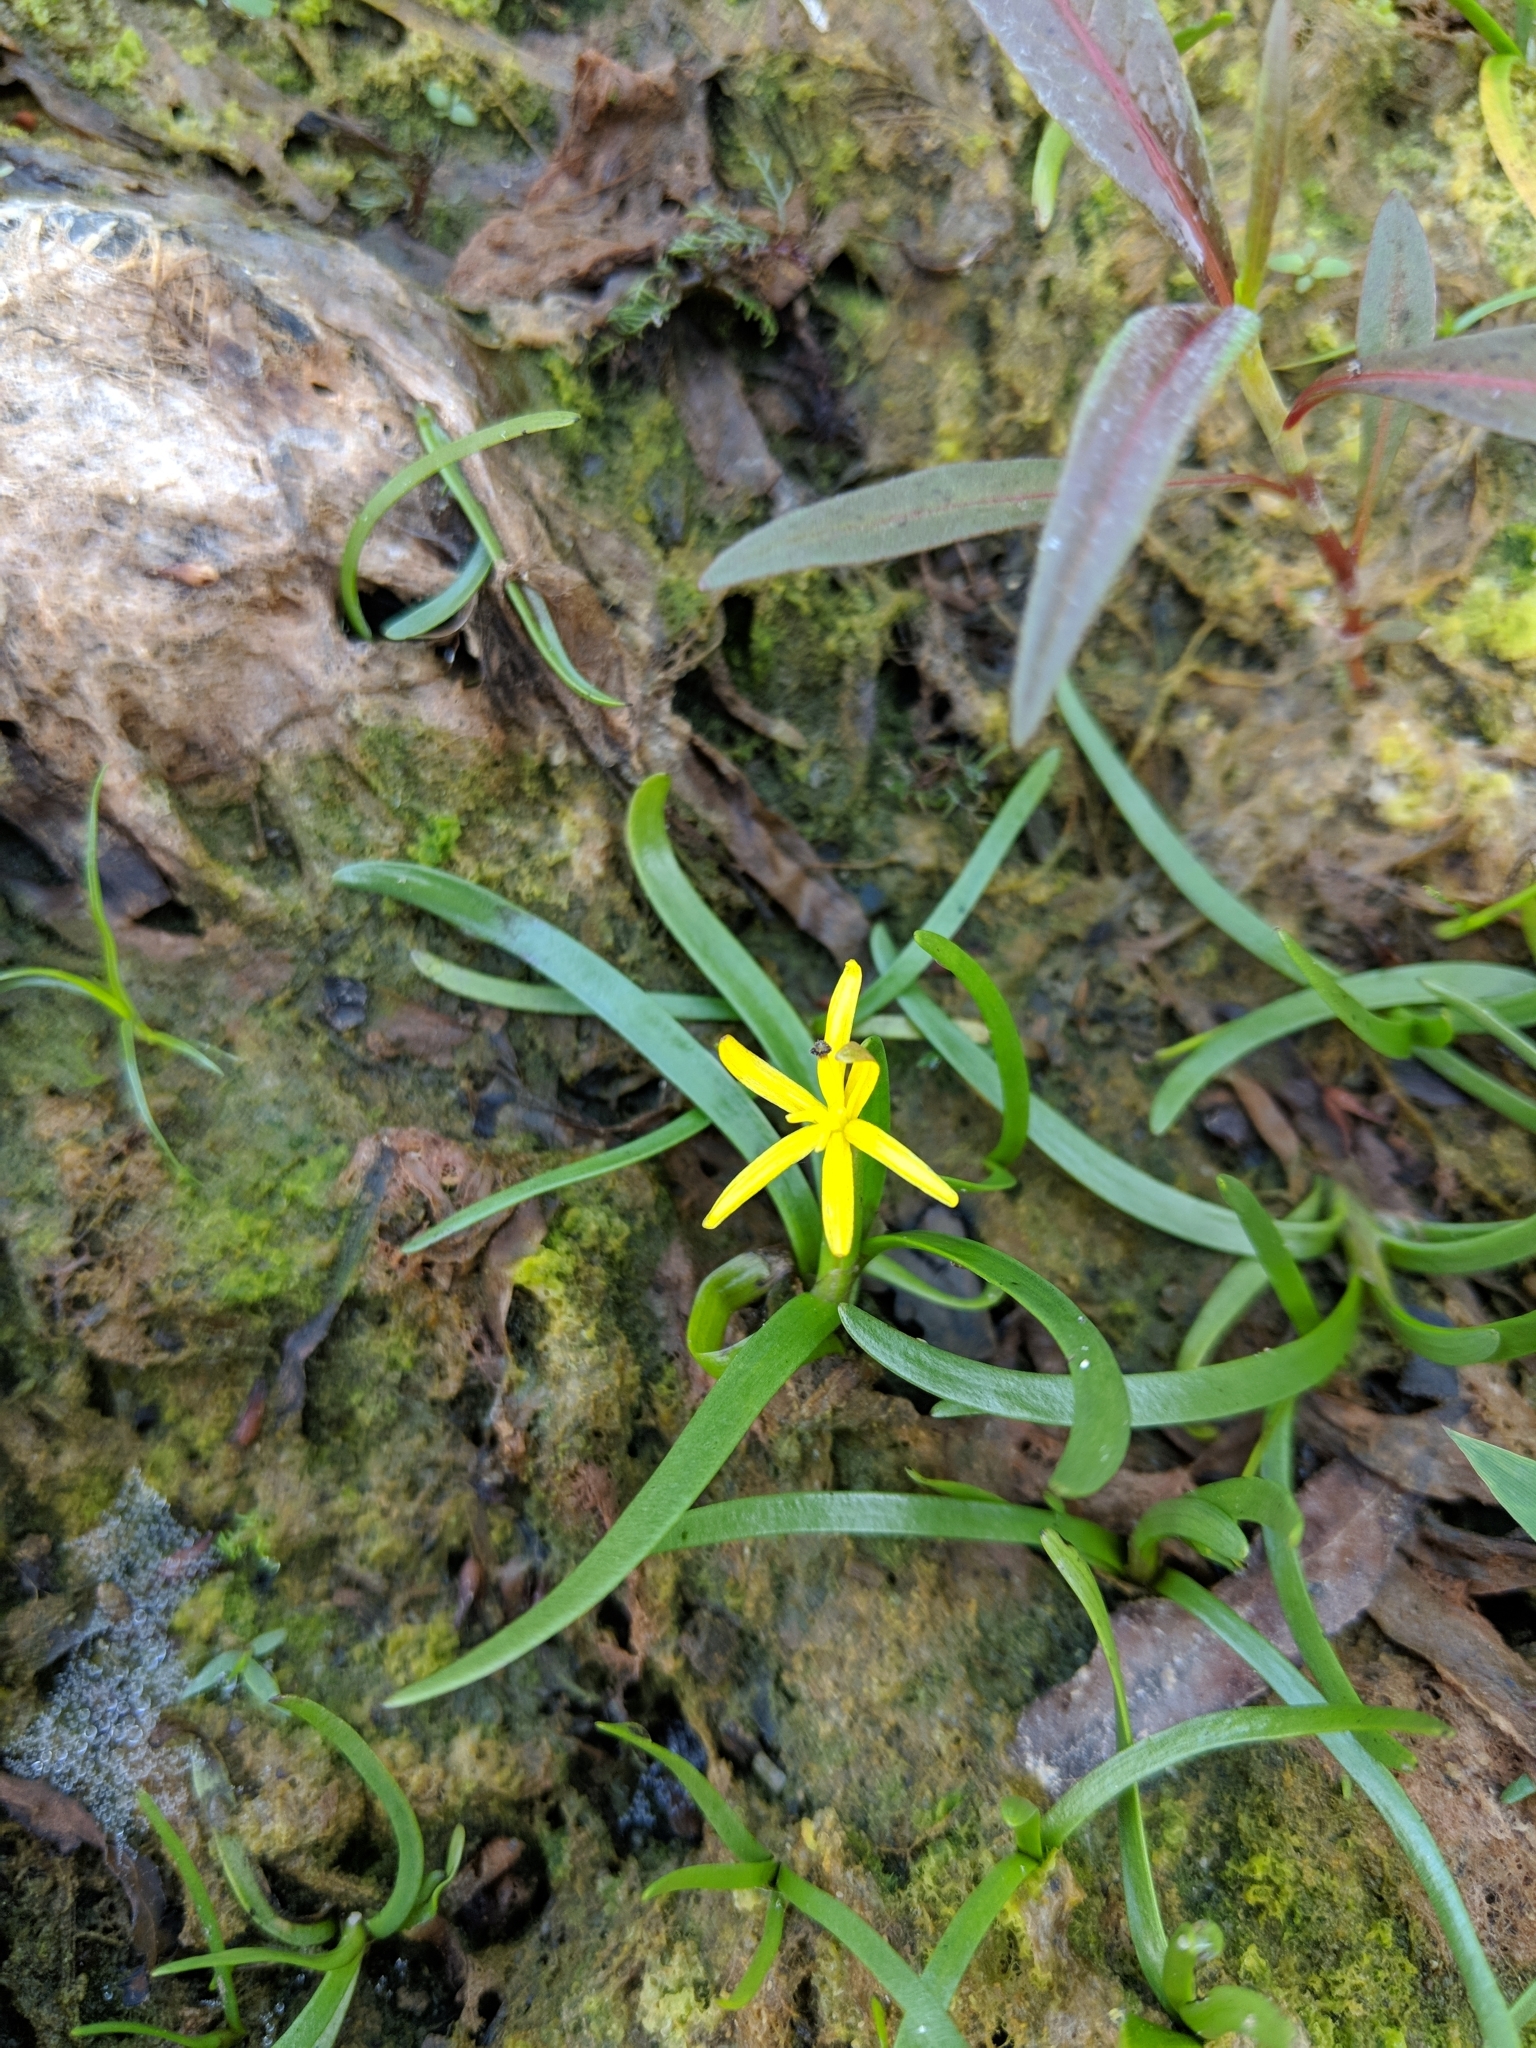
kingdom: Plantae
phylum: Tracheophyta
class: Liliopsida
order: Commelinales
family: Pontederiaceae
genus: Heteranthera
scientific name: Heteranthera dubia
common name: Grass-leaved mud plantain
